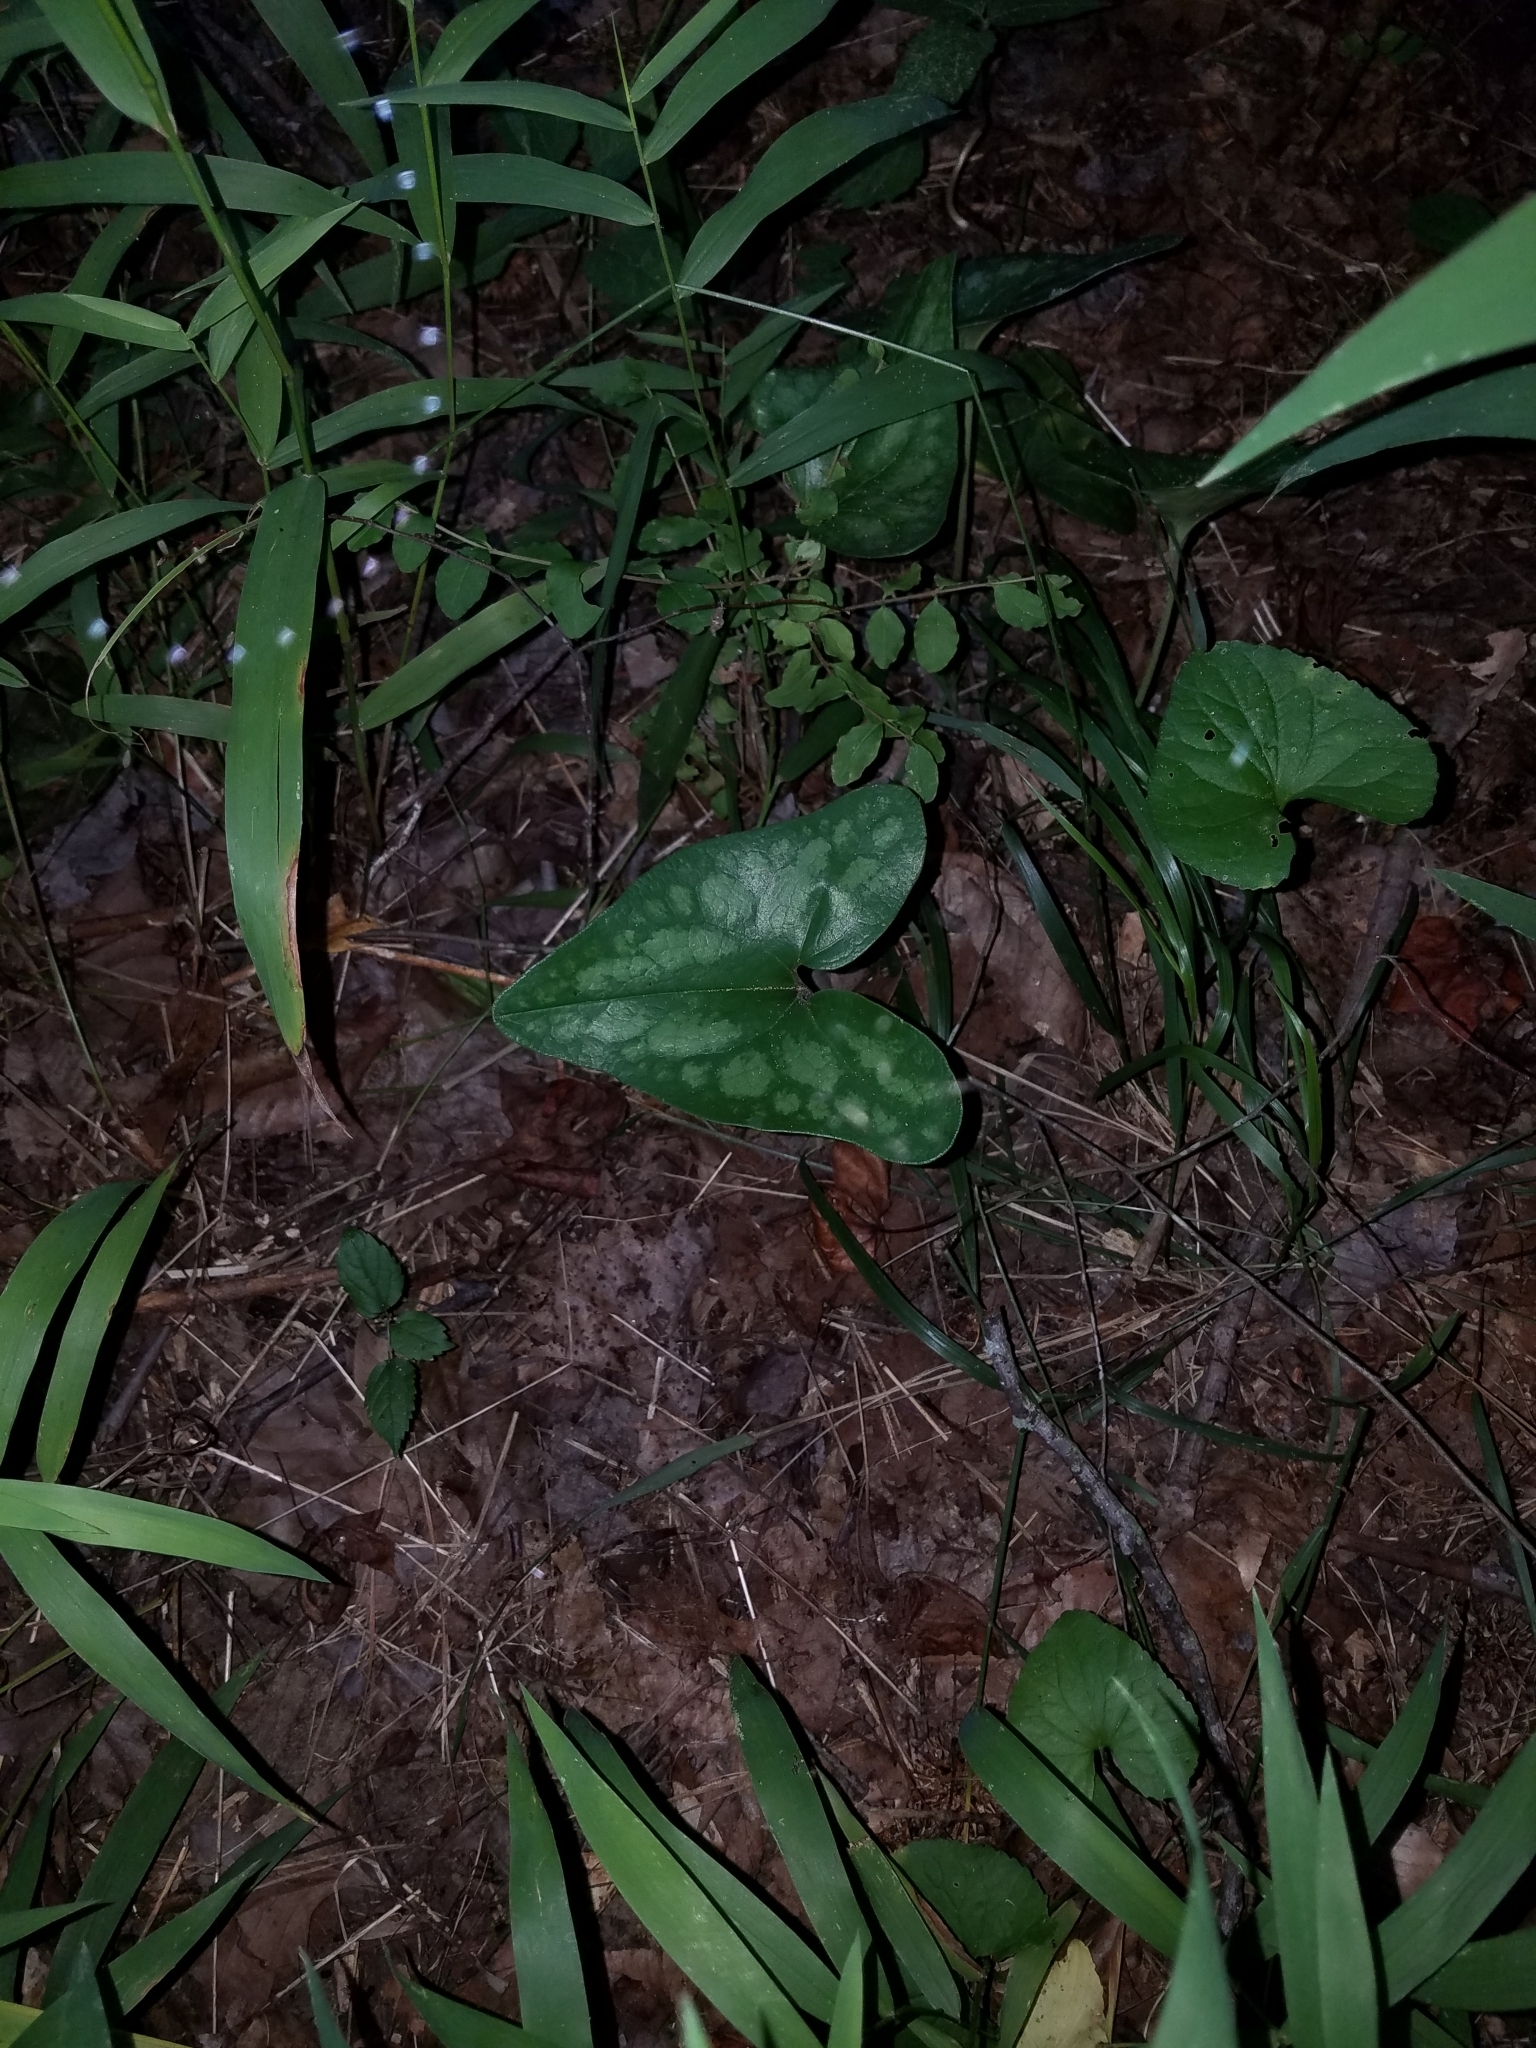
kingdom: Plantae
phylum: Tracheophyta
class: Magnoliopsida
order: Piperales
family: Aristolochiaceae
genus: Hexastylis
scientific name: Hexastylis arifolia
